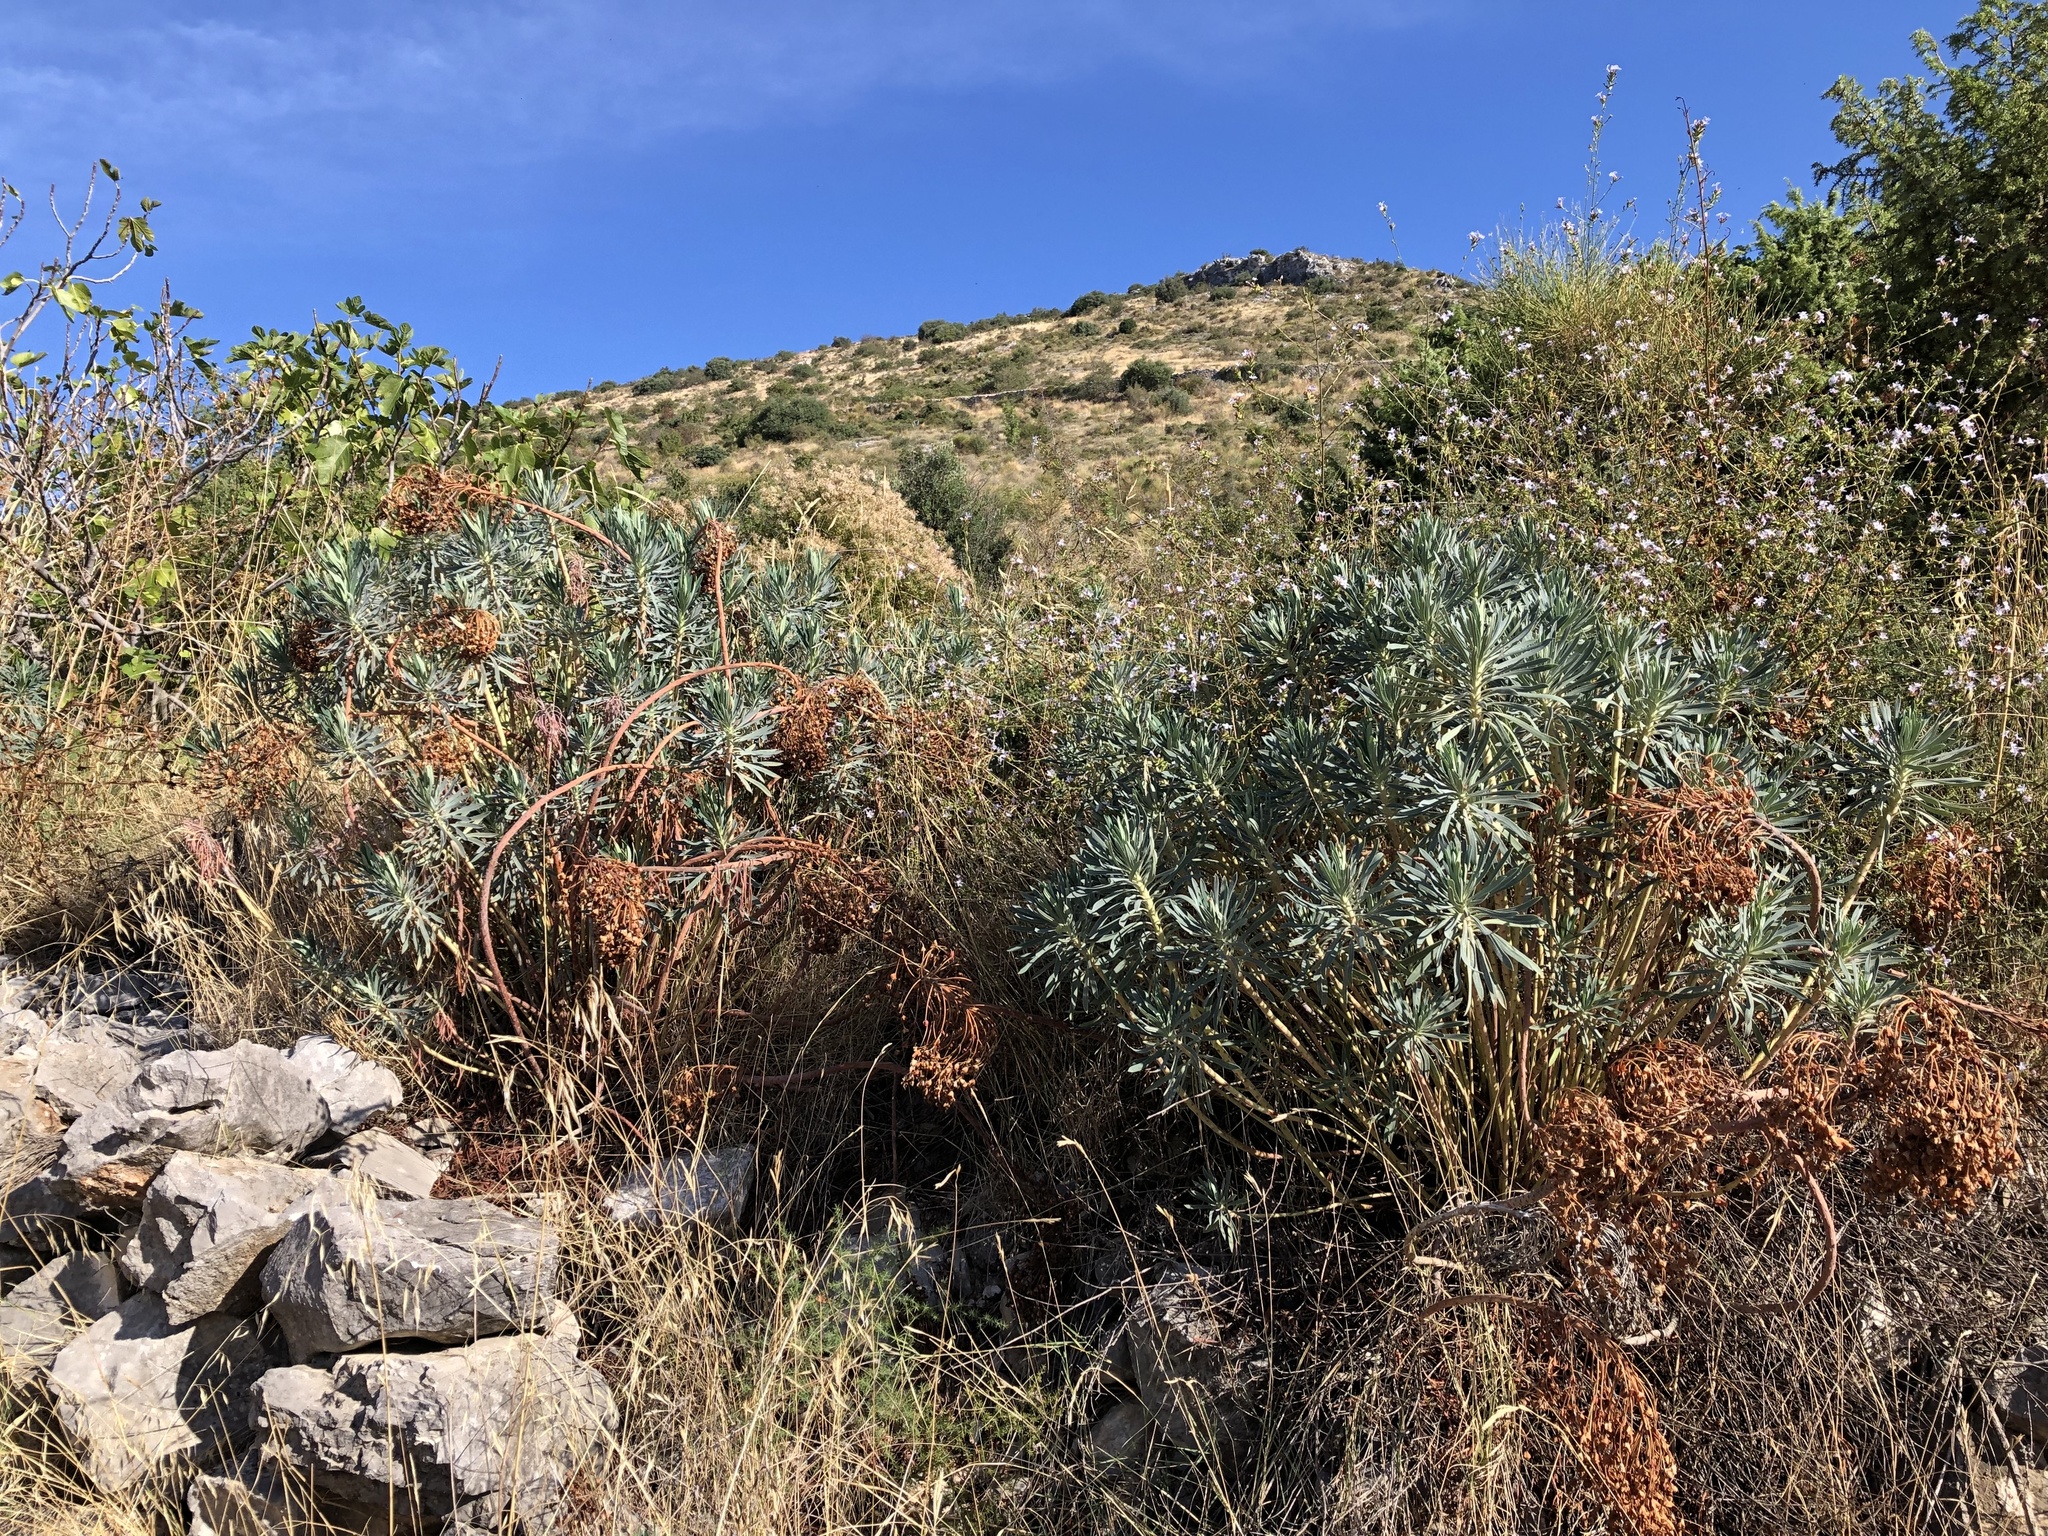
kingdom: Plantae
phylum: Tracheophyta
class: Magnoliopsida
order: Malpighiales
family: Euphorbiaceae
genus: Euphorbia
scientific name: Euphorbia characias
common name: Mediterranean spurge
